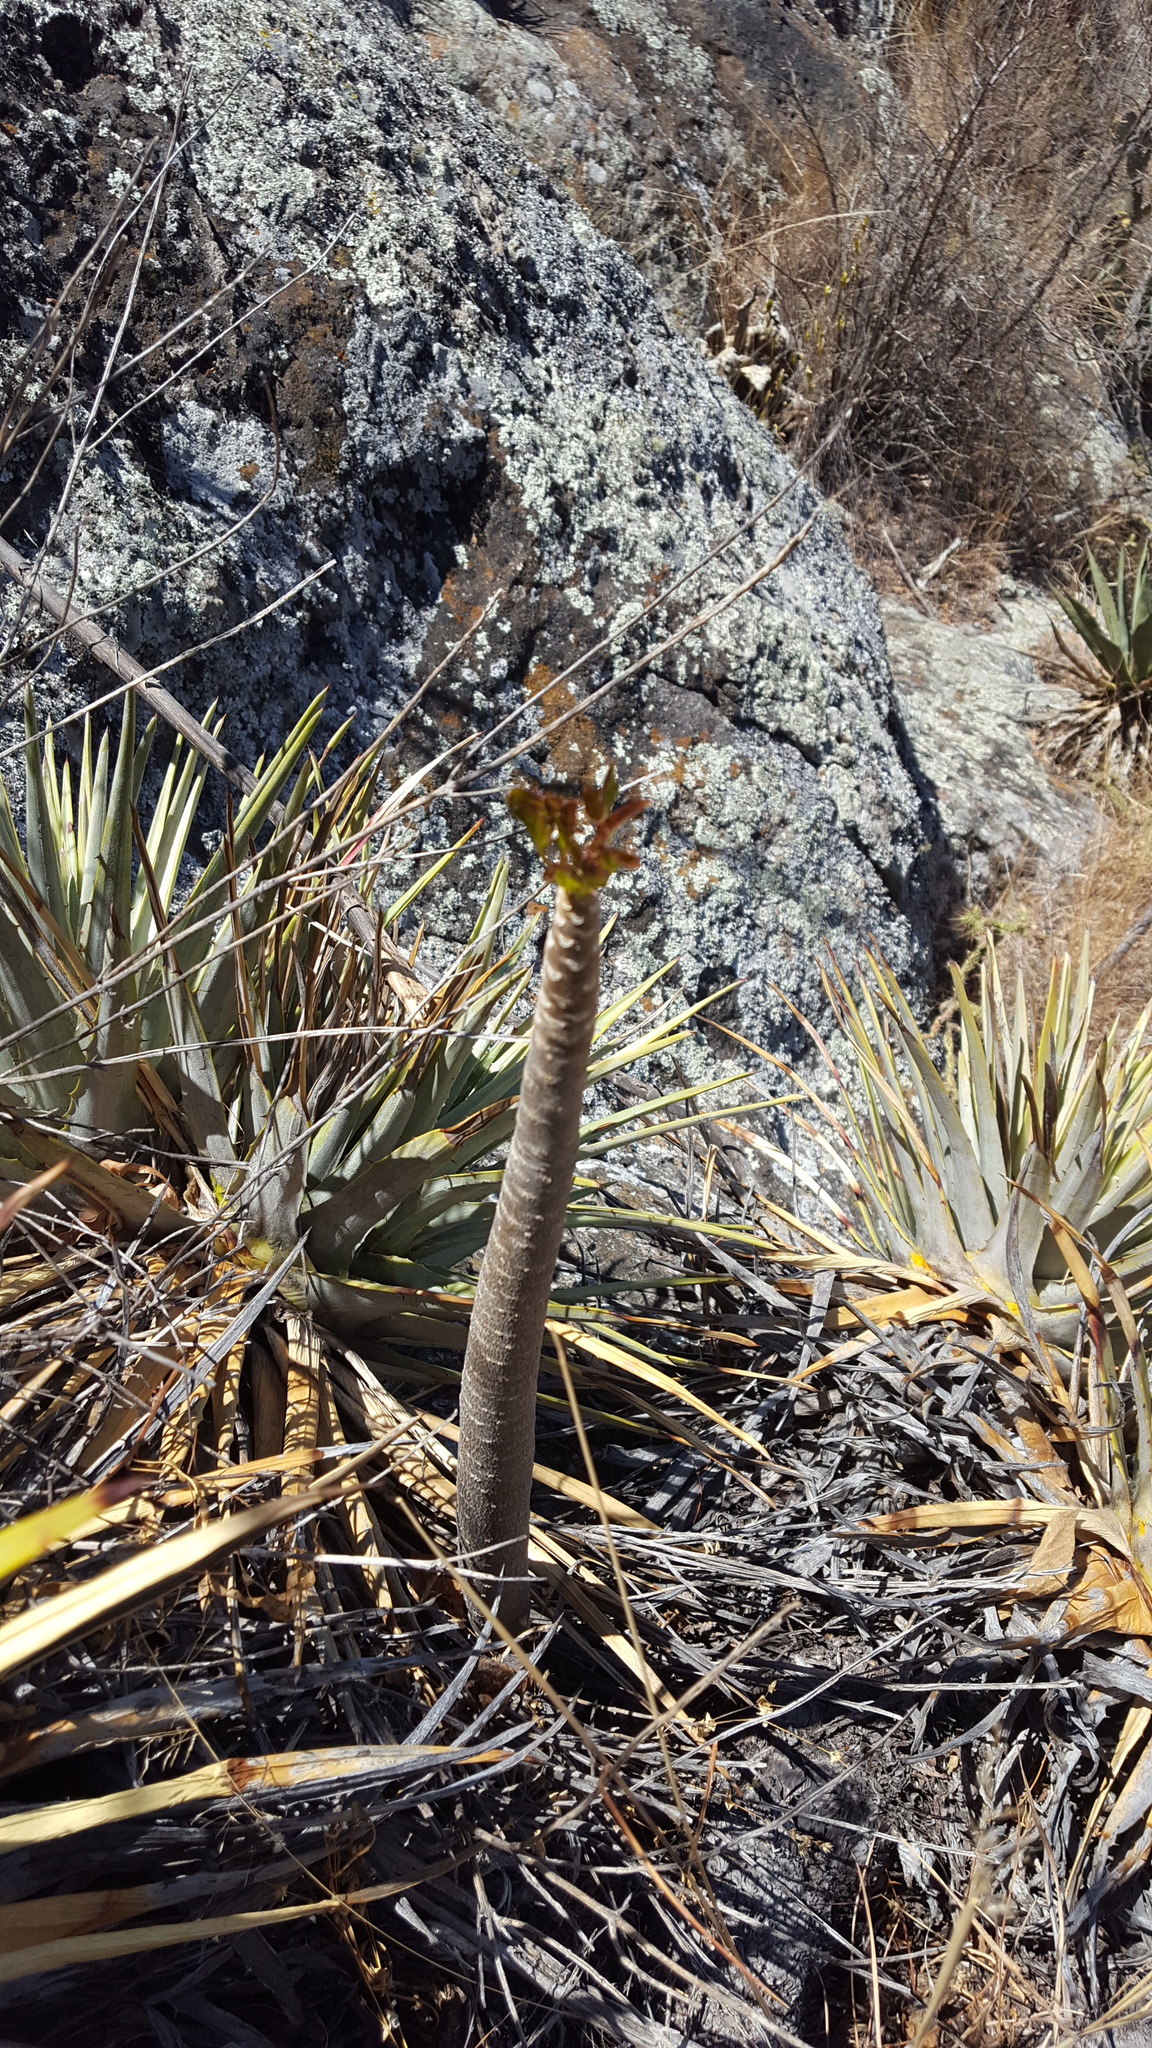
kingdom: Plantae
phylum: Tracheophyta
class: Magnoliopsida
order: Asterales
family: Asteraceae
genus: Pittocaulon
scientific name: Pittocaulon praecox
